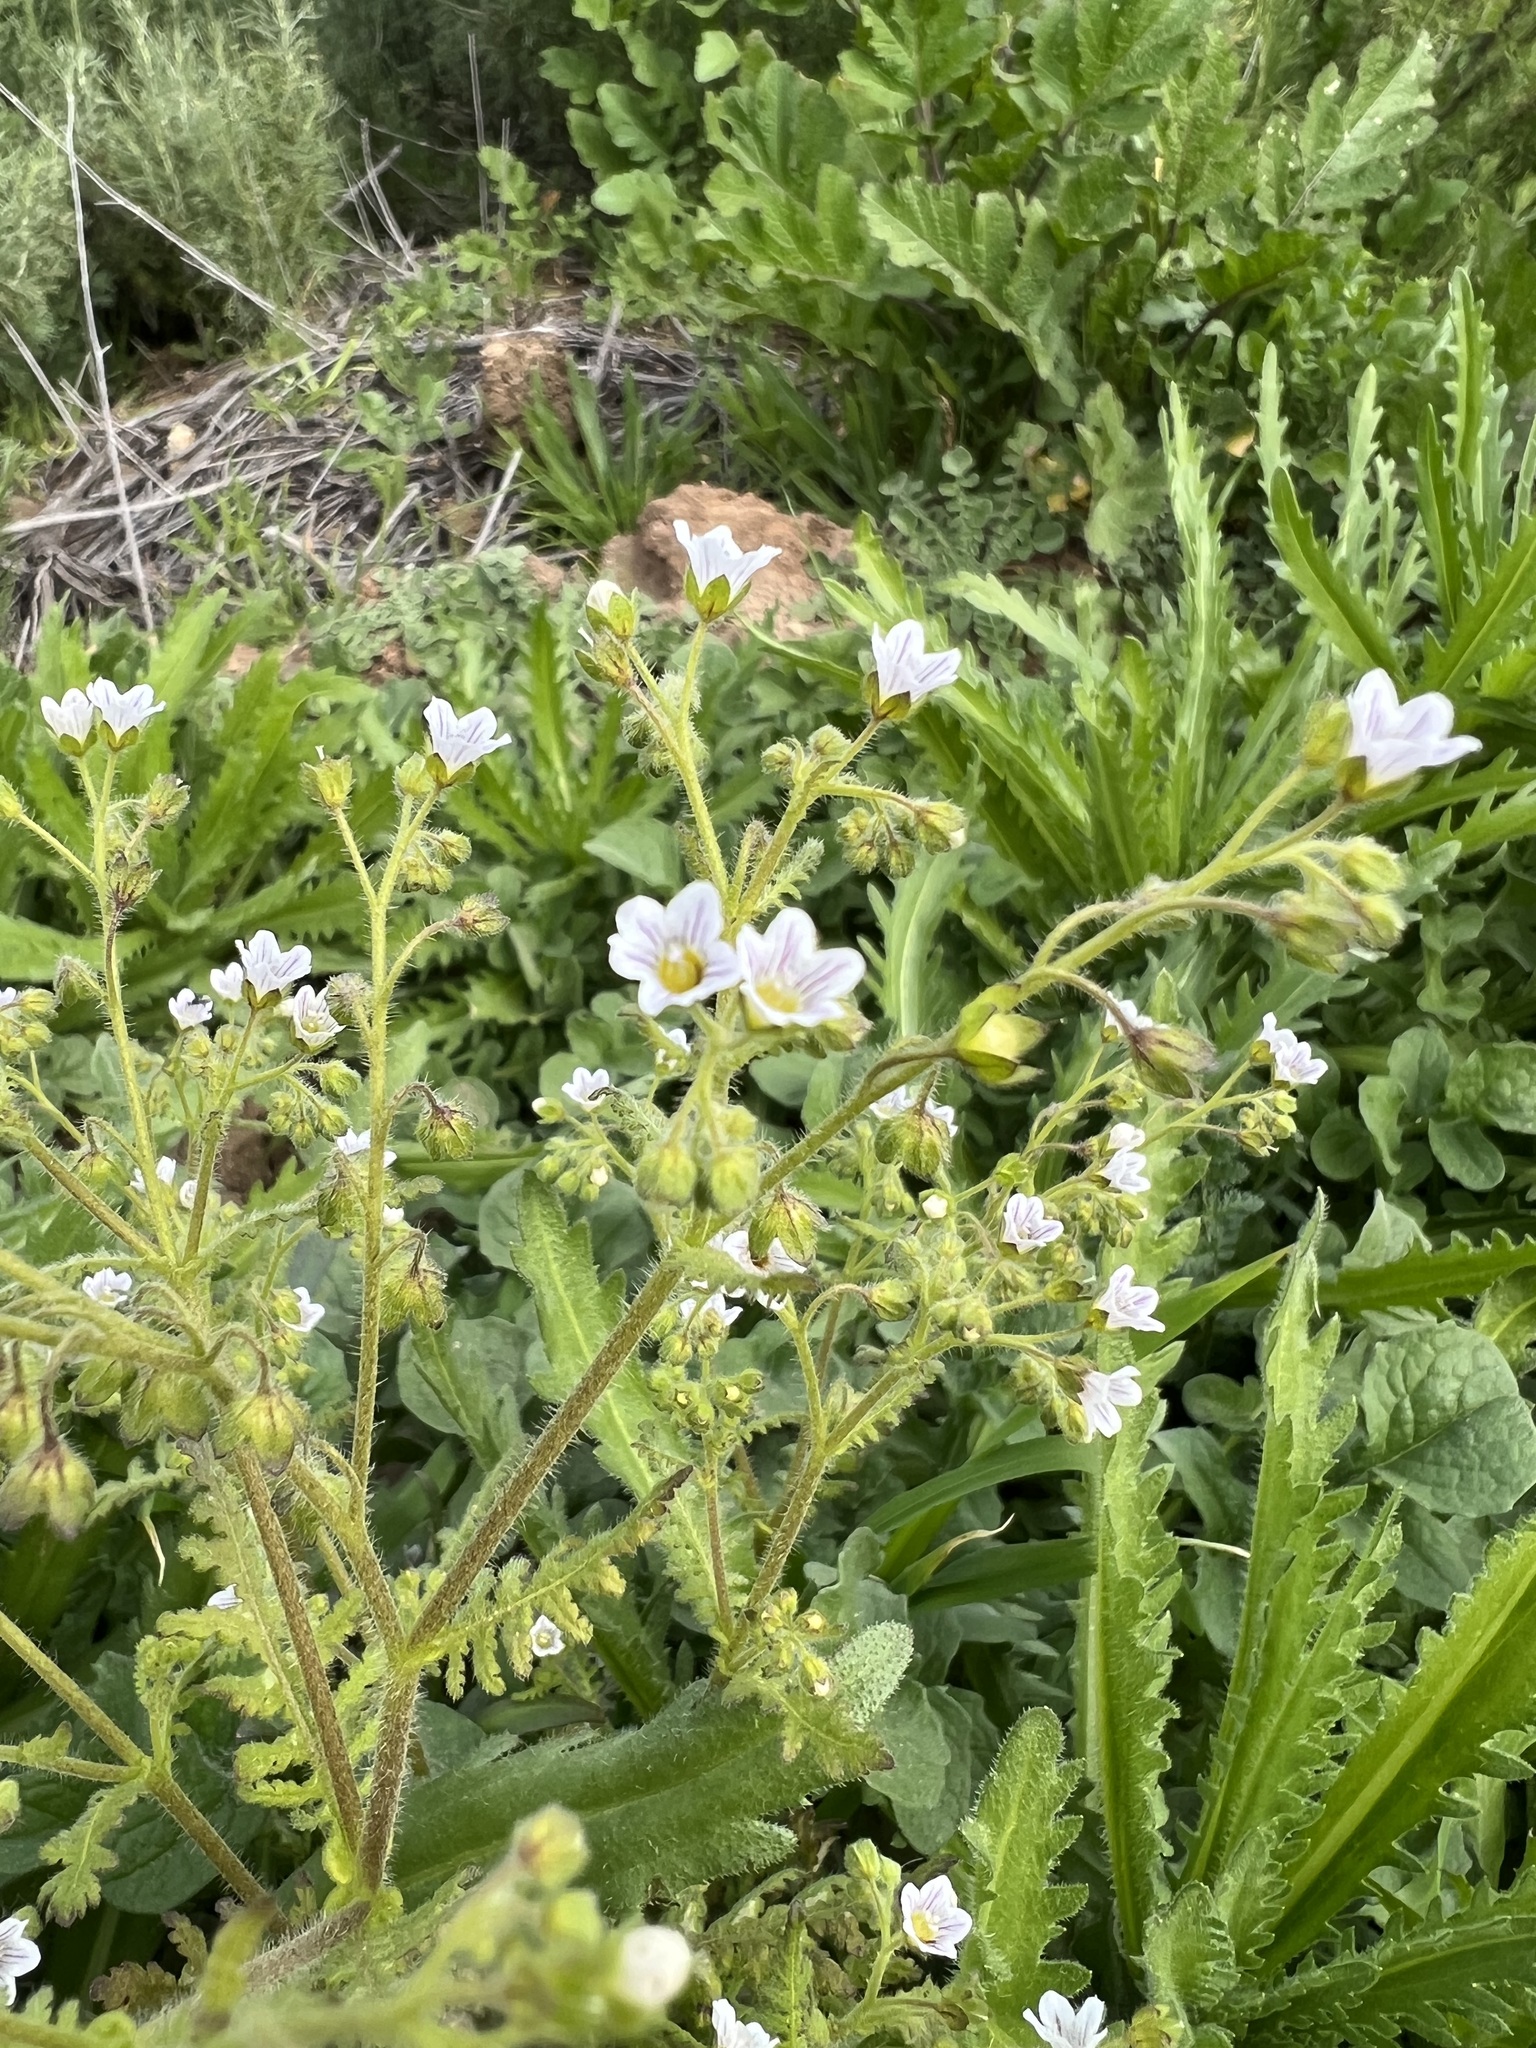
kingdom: Plantae
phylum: Tracheophyta
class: Magnoliopsida
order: Boraginales
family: Hydrophyllaceae
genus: Eucrypta
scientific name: Eucrypta chrysanthemifolia
